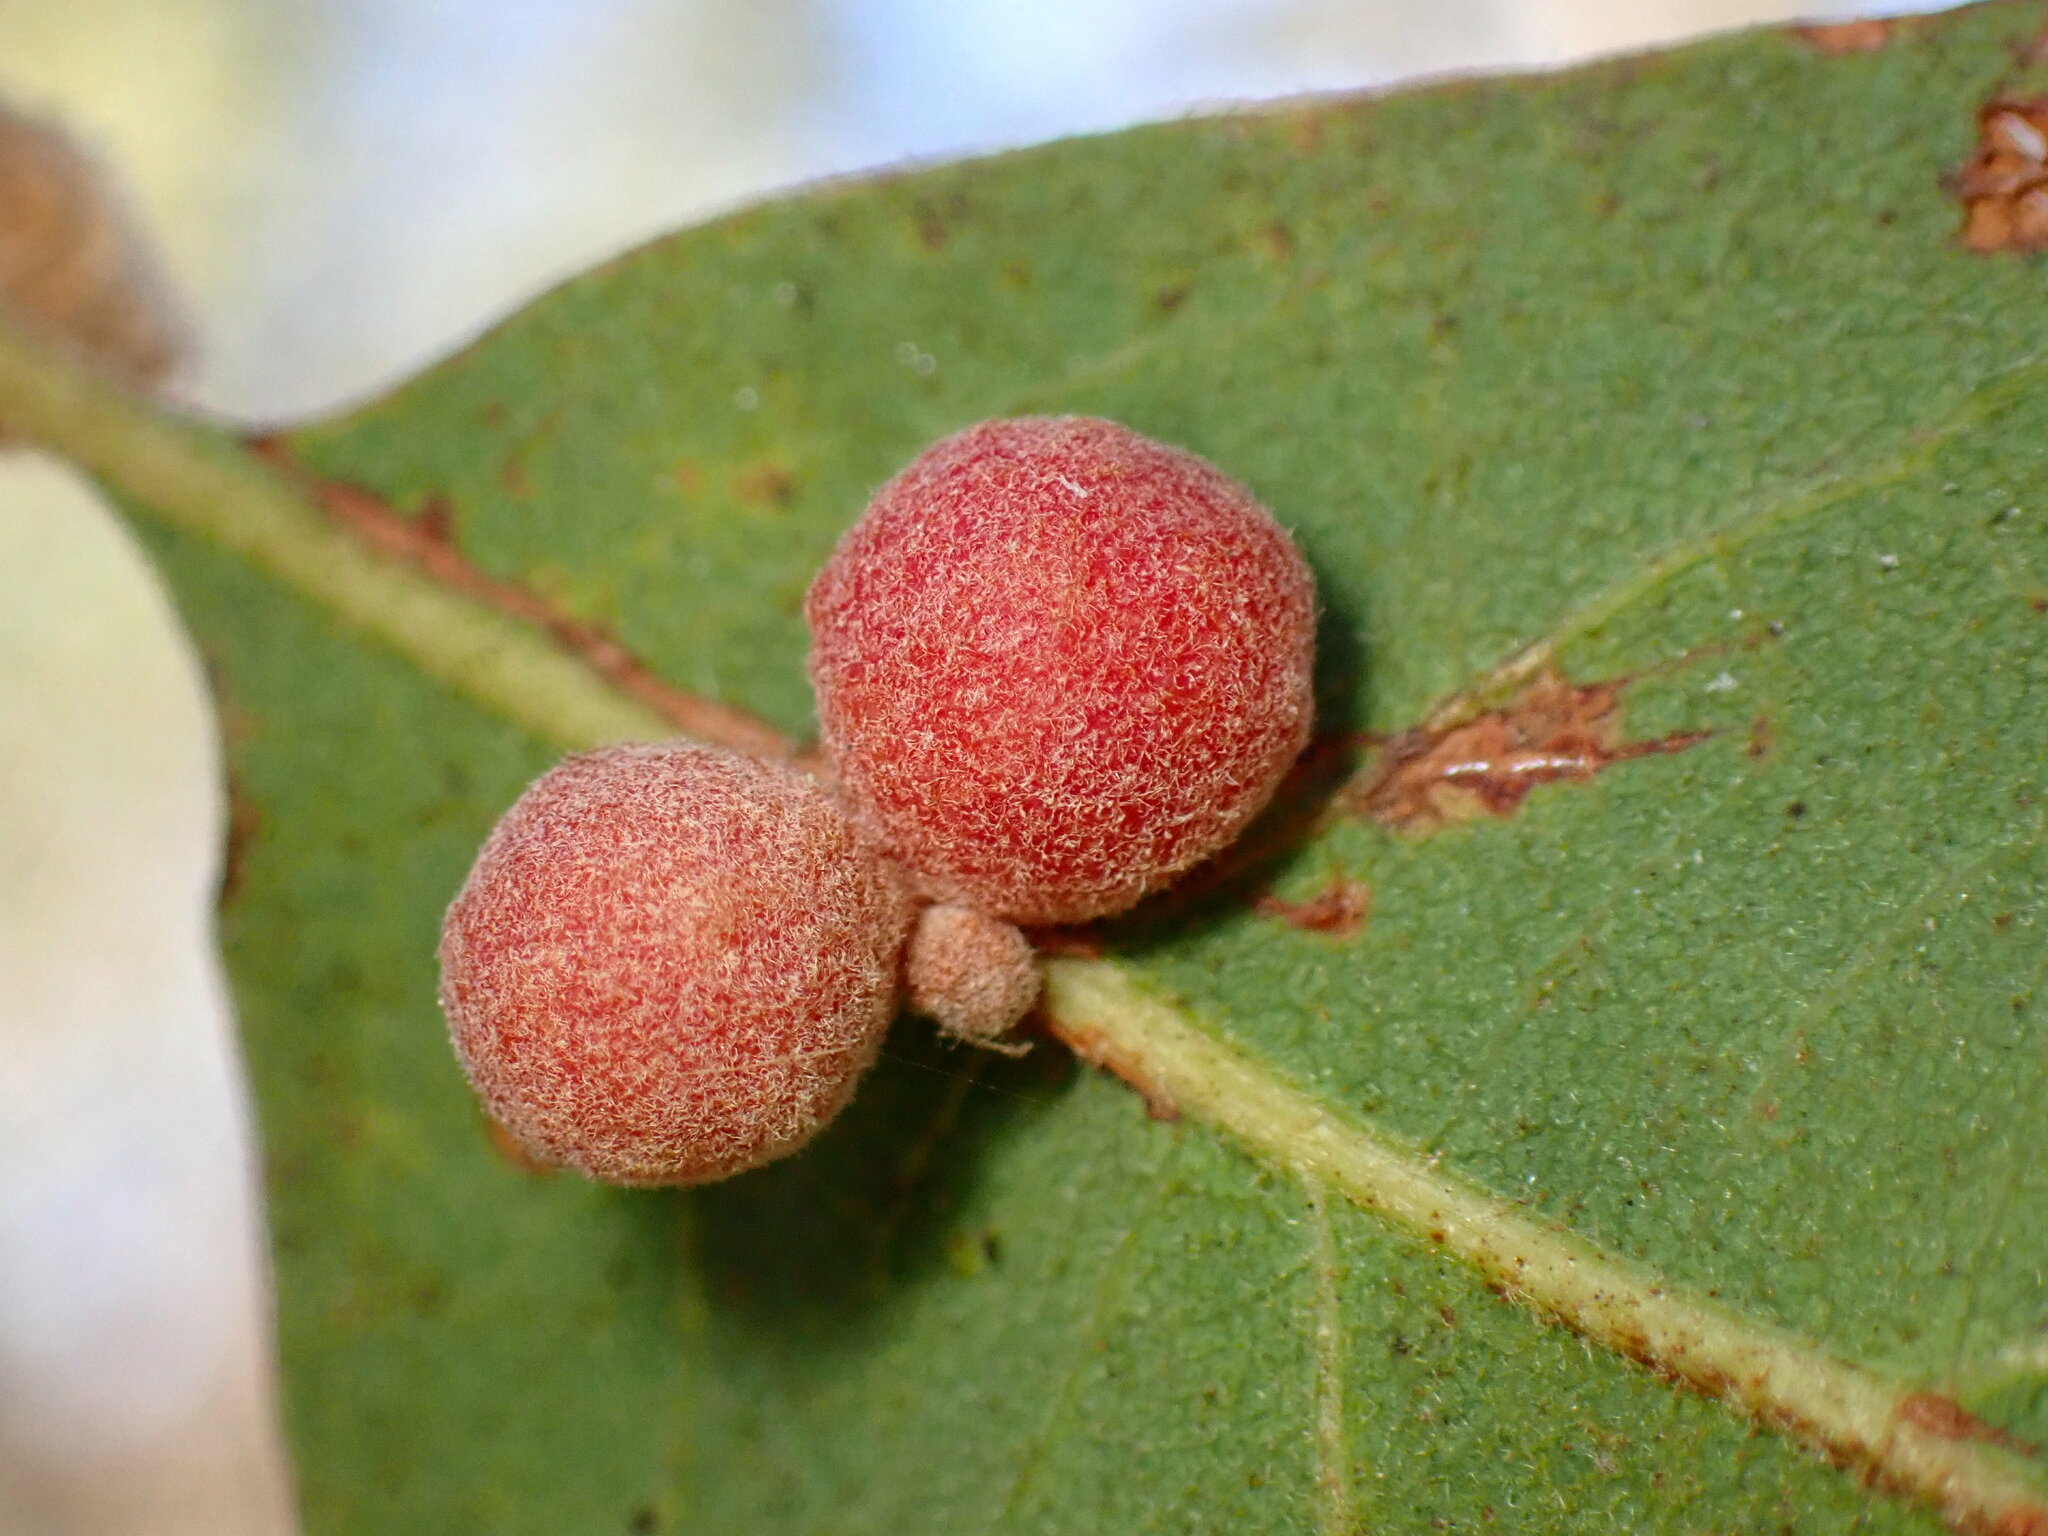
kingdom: Animalia
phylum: Arthropoda
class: Insecta
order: Hymenoptera
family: Cynipidae
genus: Andricus
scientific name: Andricus
